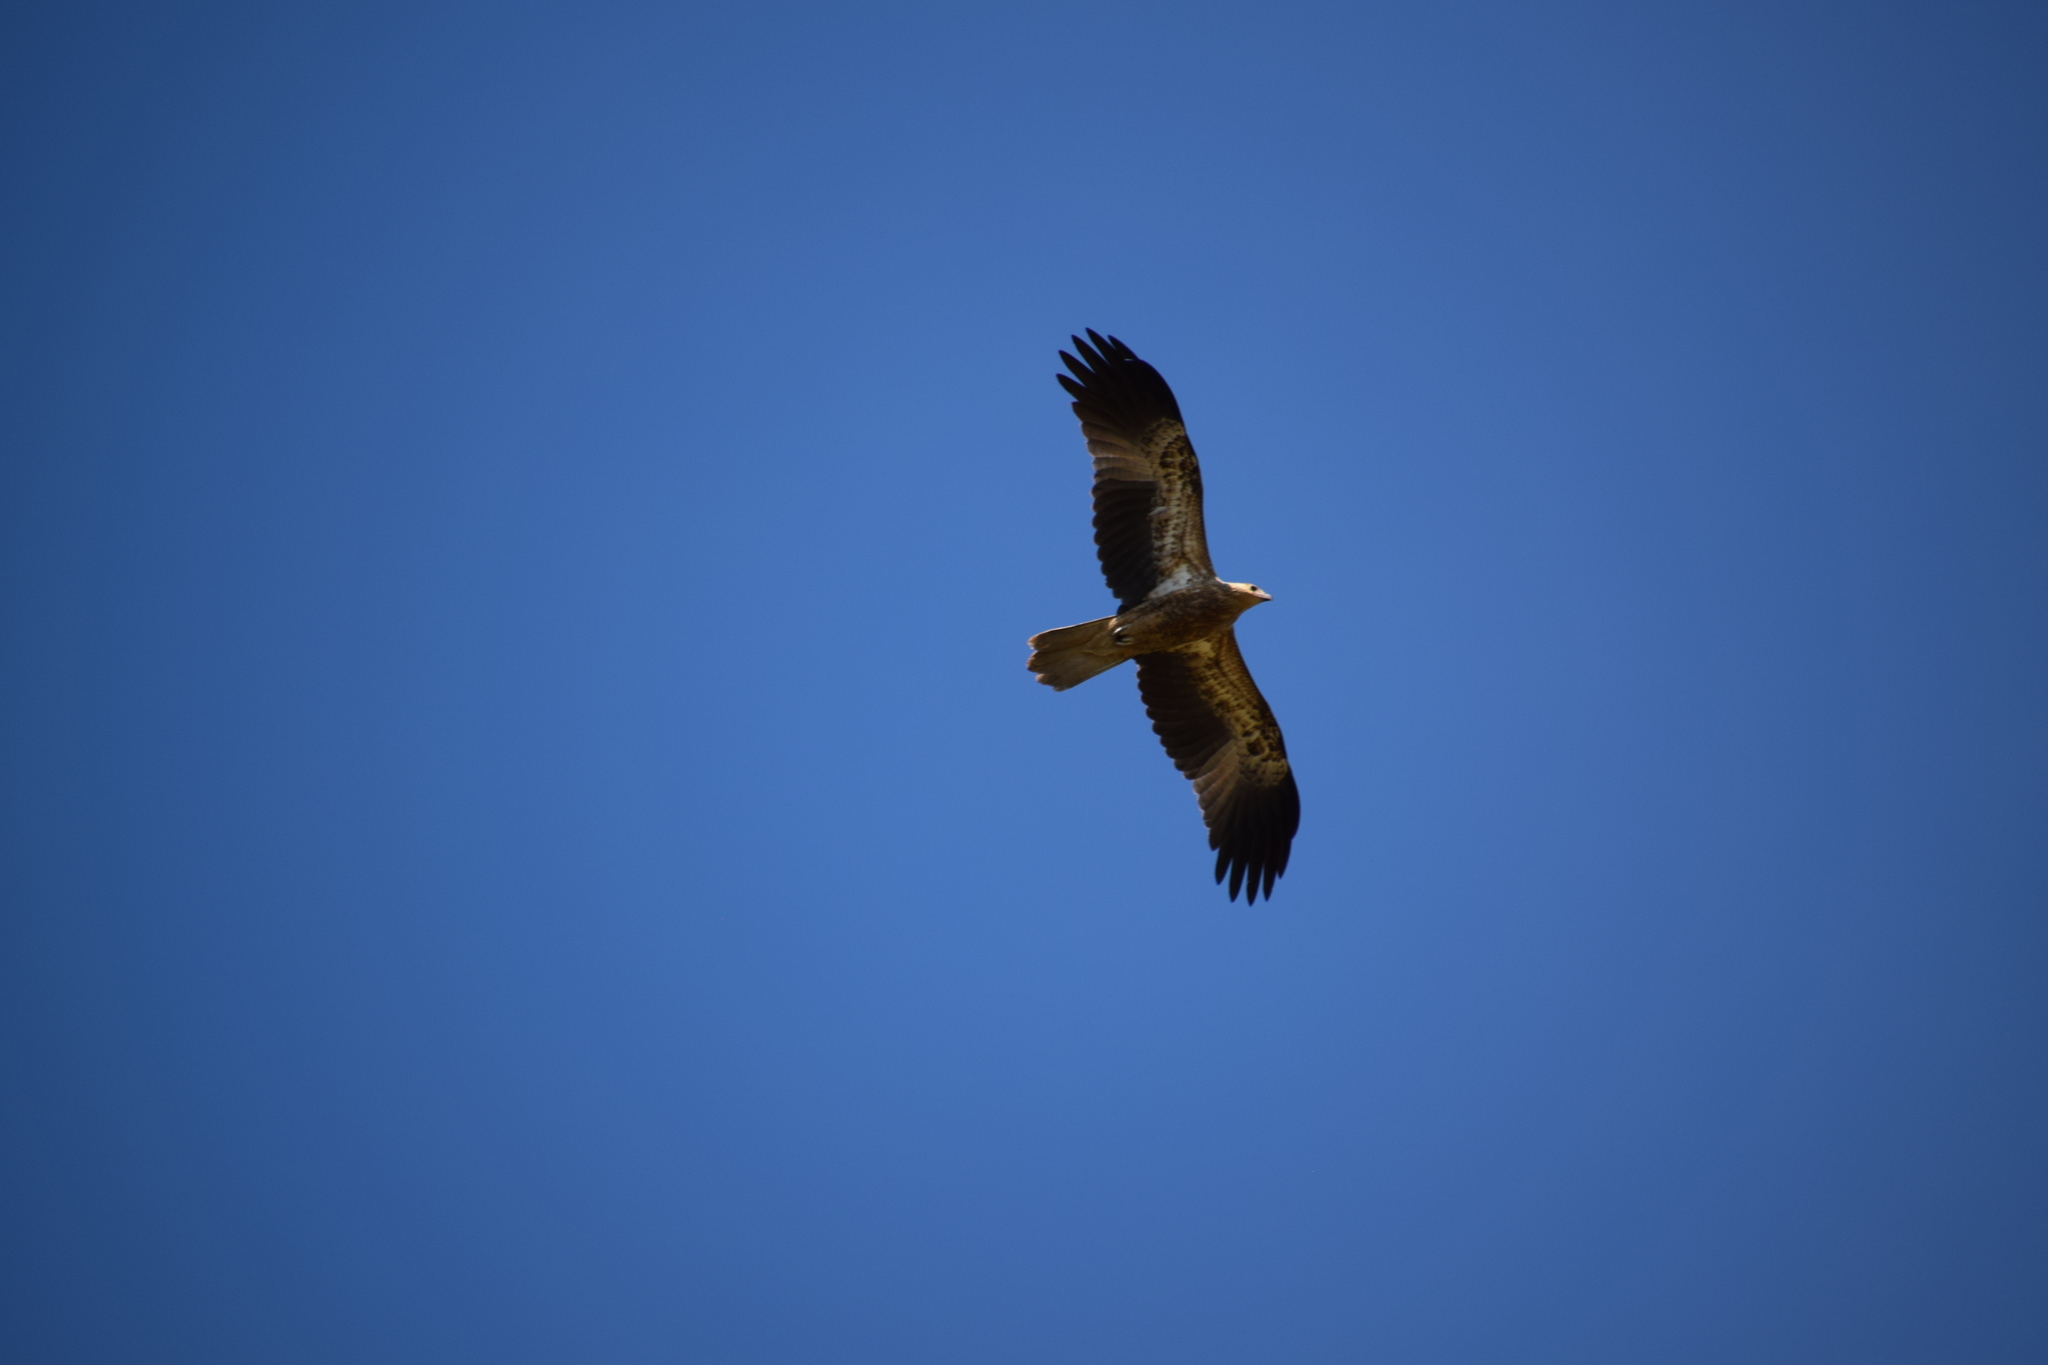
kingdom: Animalia
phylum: Chordata
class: Aves
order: Accipitriformes
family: Accipitridae
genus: Haliastur
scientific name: Haliastur sphenurus
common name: Whistling kite
